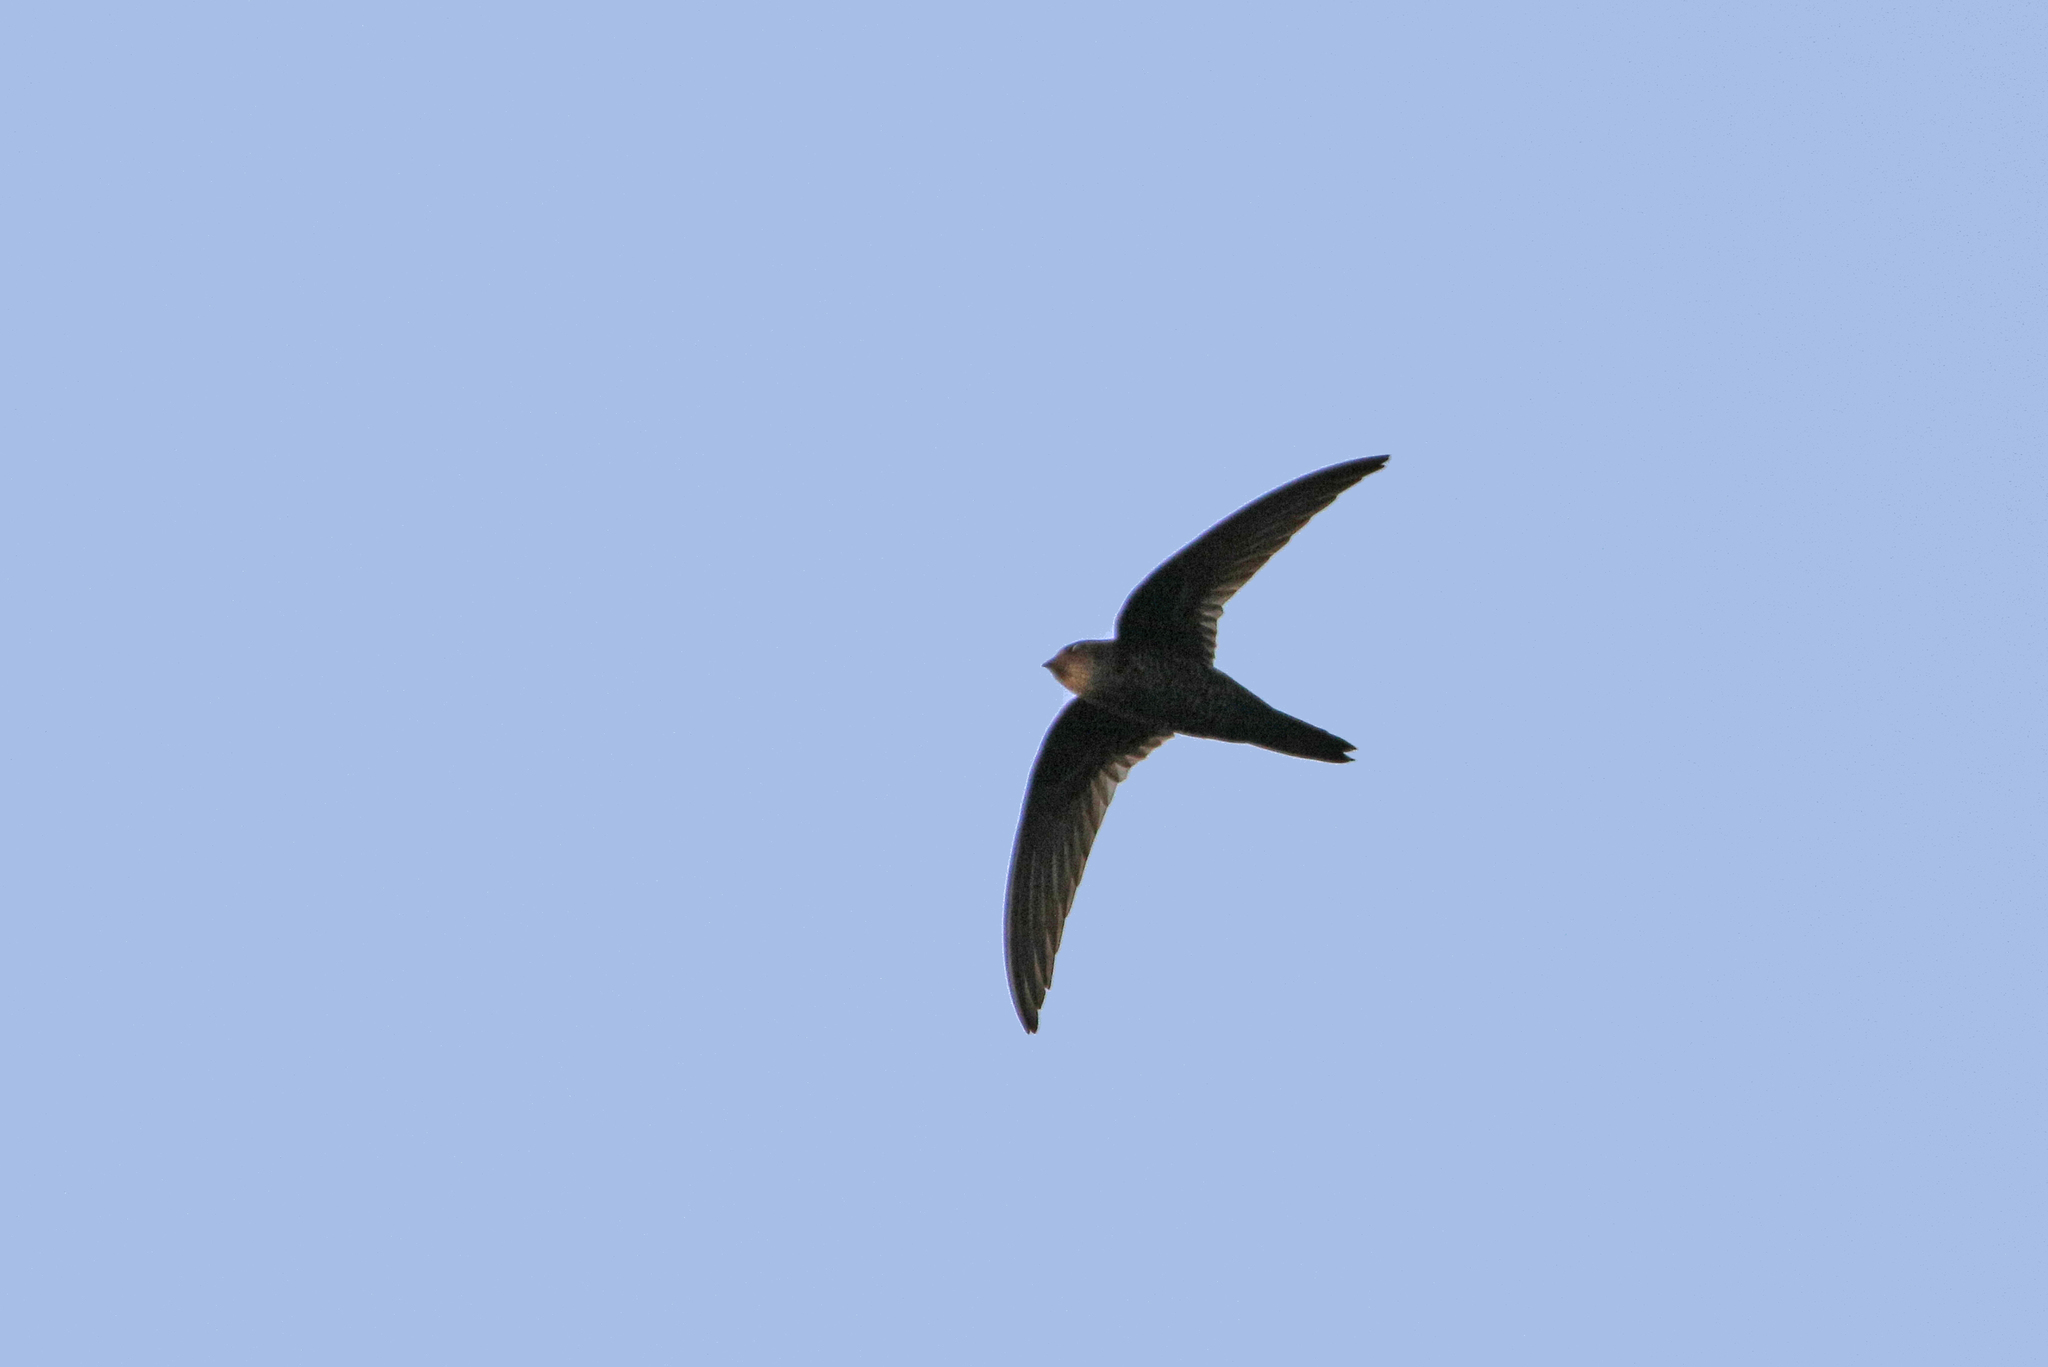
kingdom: Animalia
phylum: Chordata
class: Aves
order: Apodiformes
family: Apodidae
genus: Apus
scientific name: Apus cooki
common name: Cook's swift
